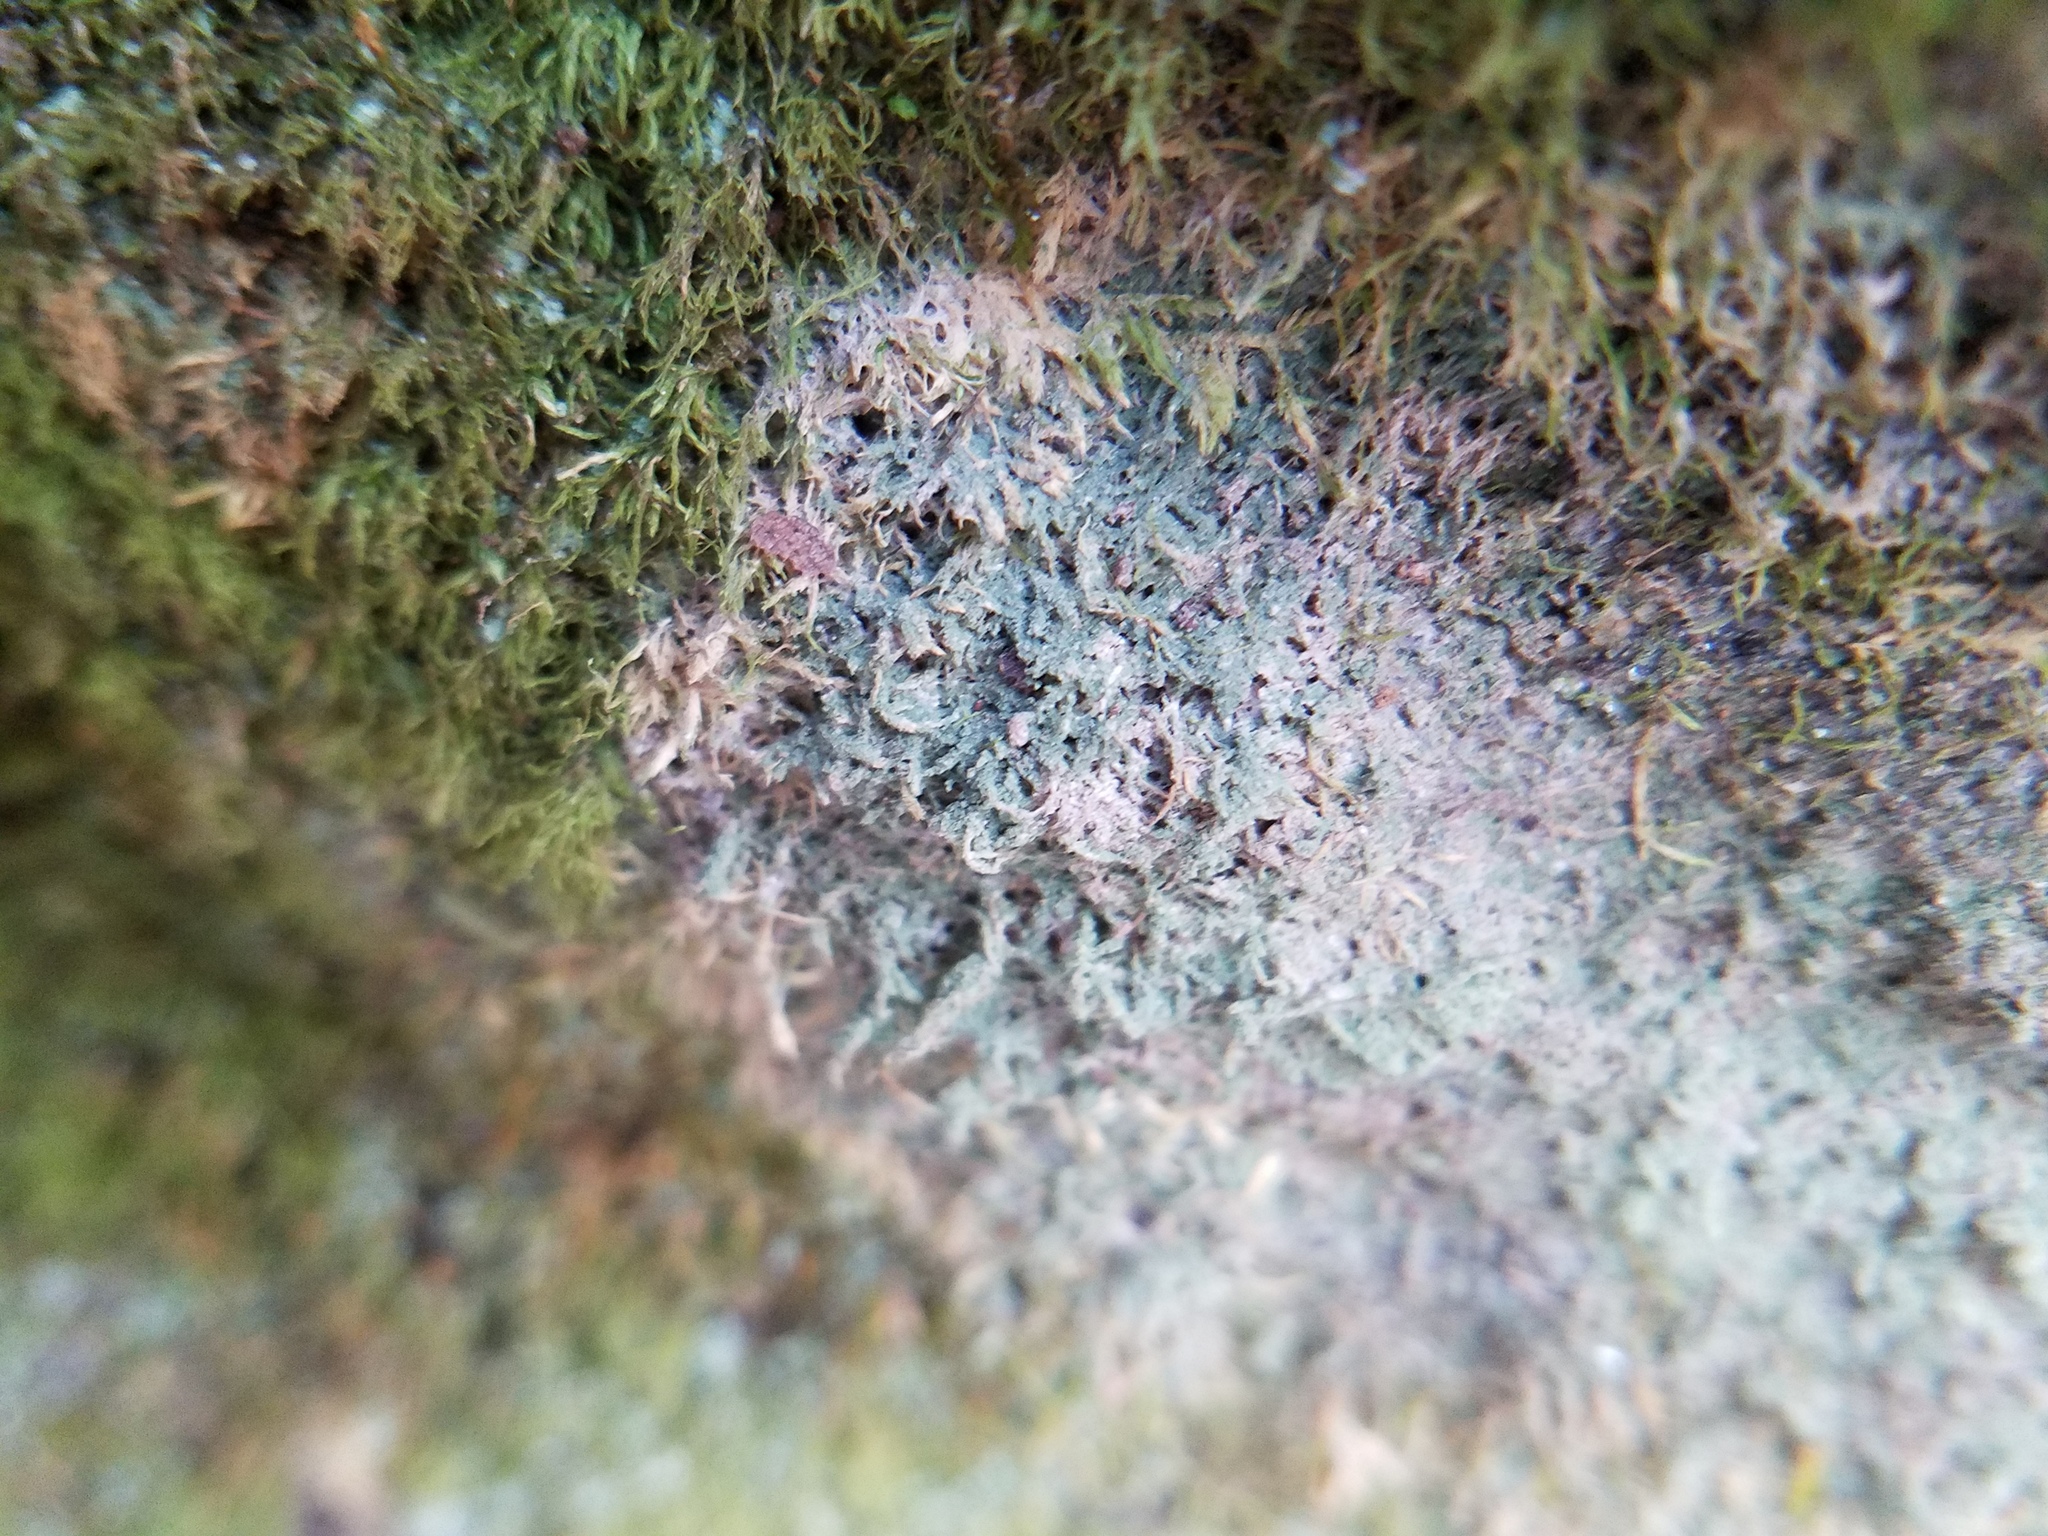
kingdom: Fungi
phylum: Ascomycota
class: Lecanoromycetes
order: Pertusariales
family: Pertusariaceae
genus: Pertusaria
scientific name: Pertusaria globularis
